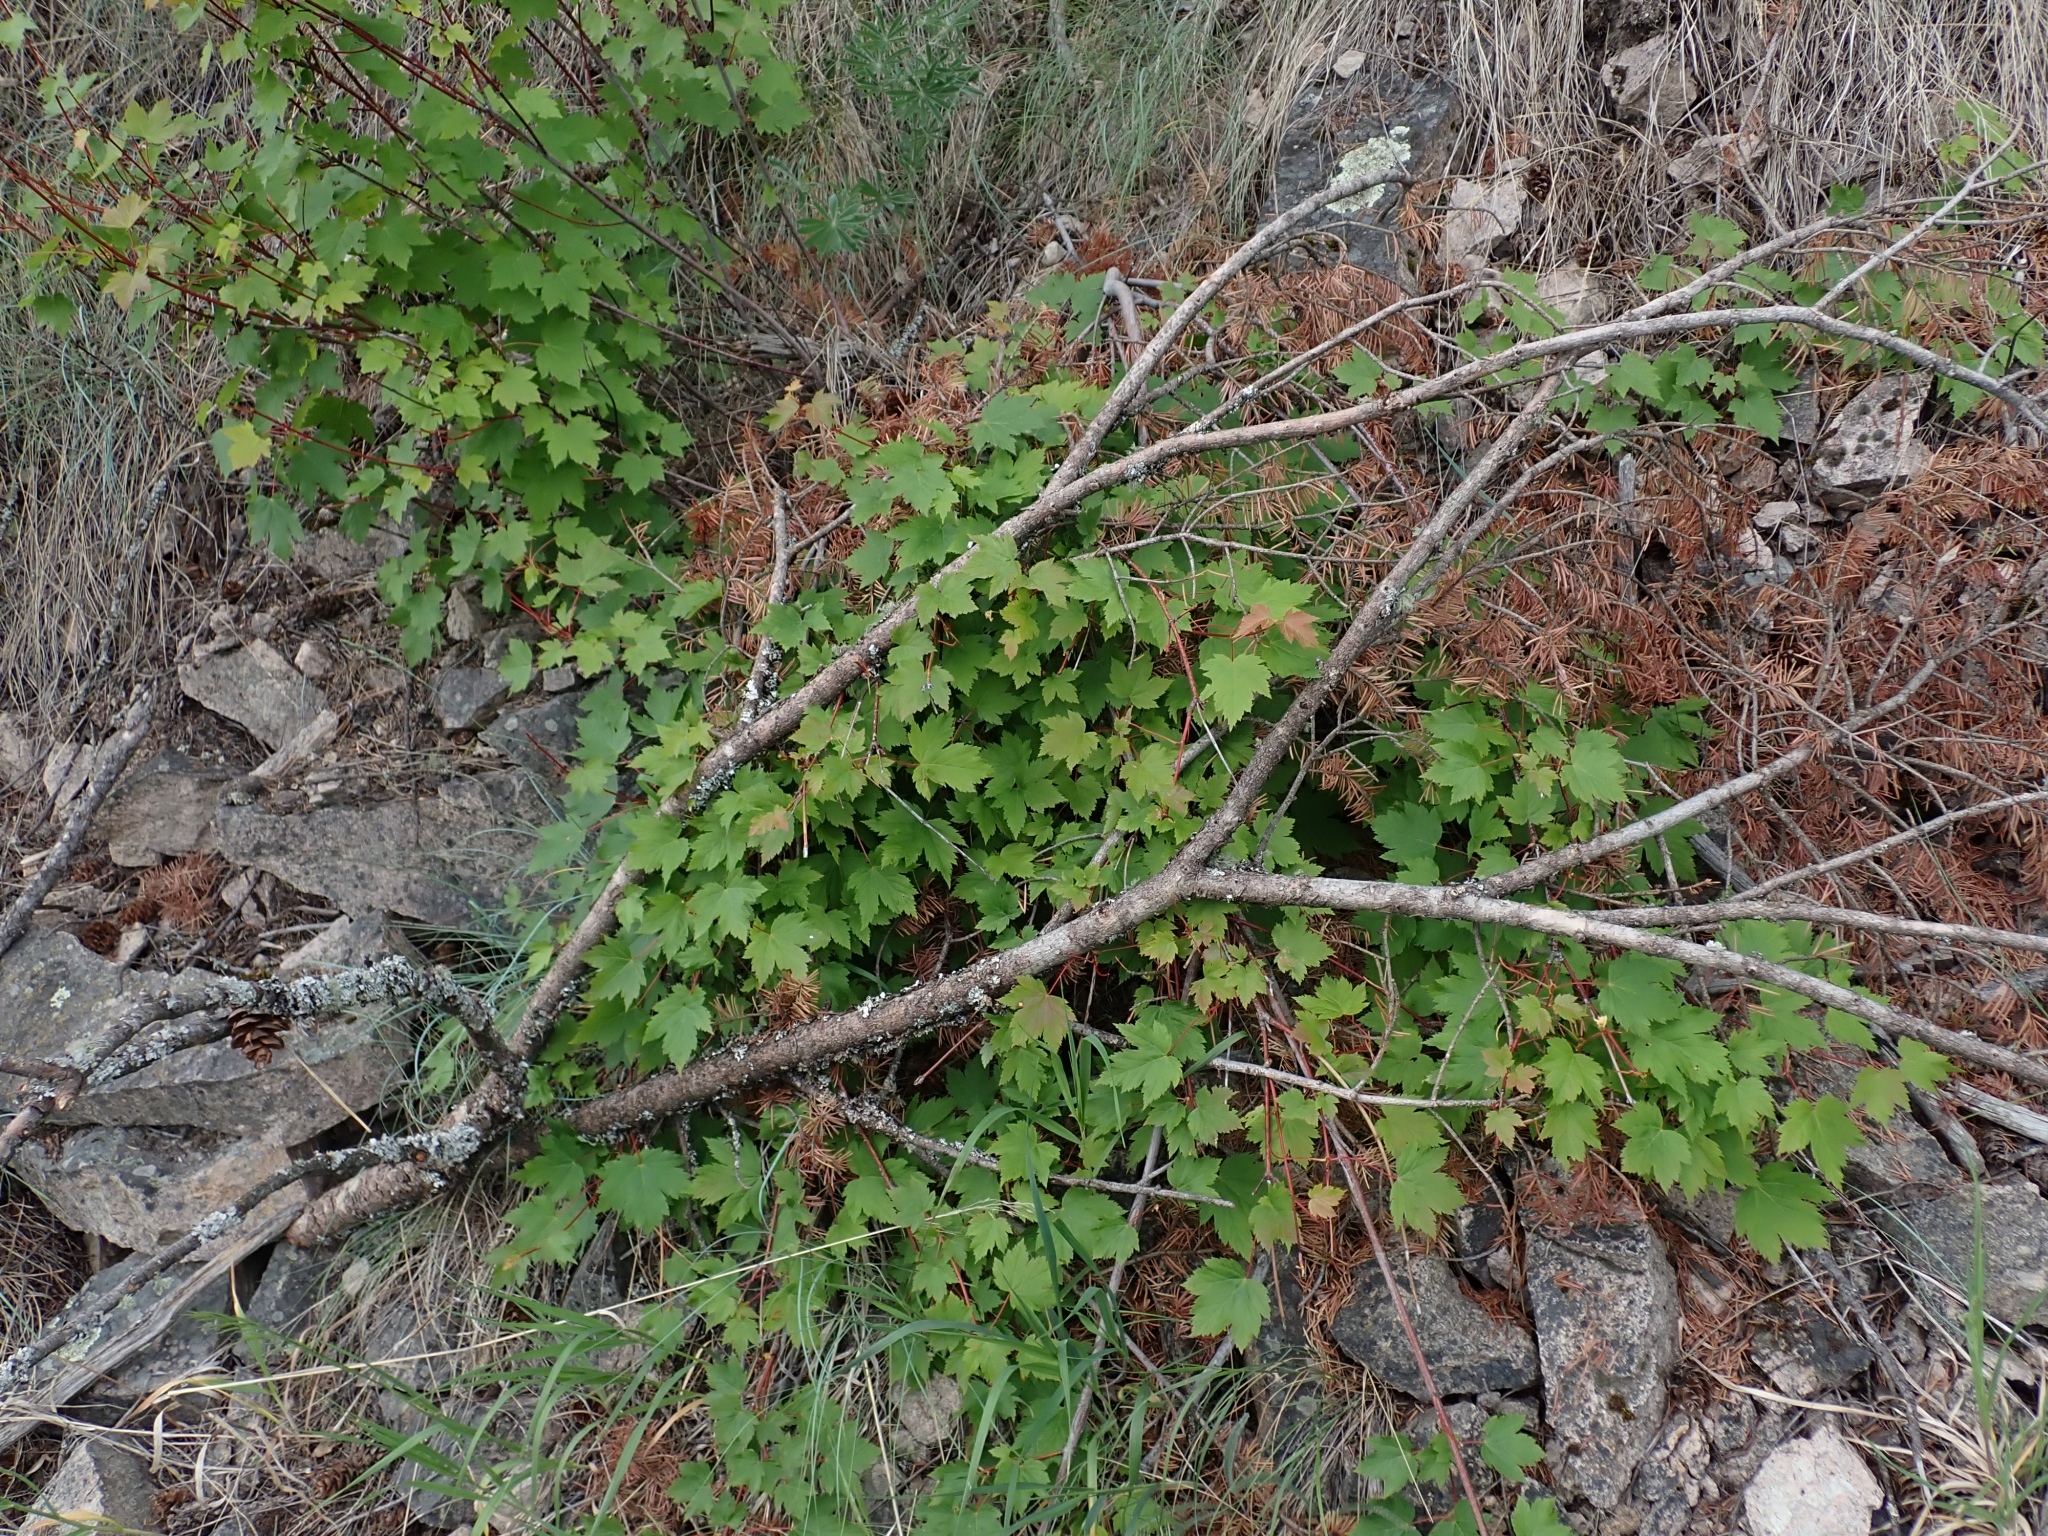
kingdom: Plantae
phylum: Tracheophyta
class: Magnoliopsida
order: Sapindales
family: Sapindaceae
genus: Acer
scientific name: Acer glabrum
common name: Rocky mountain maple
